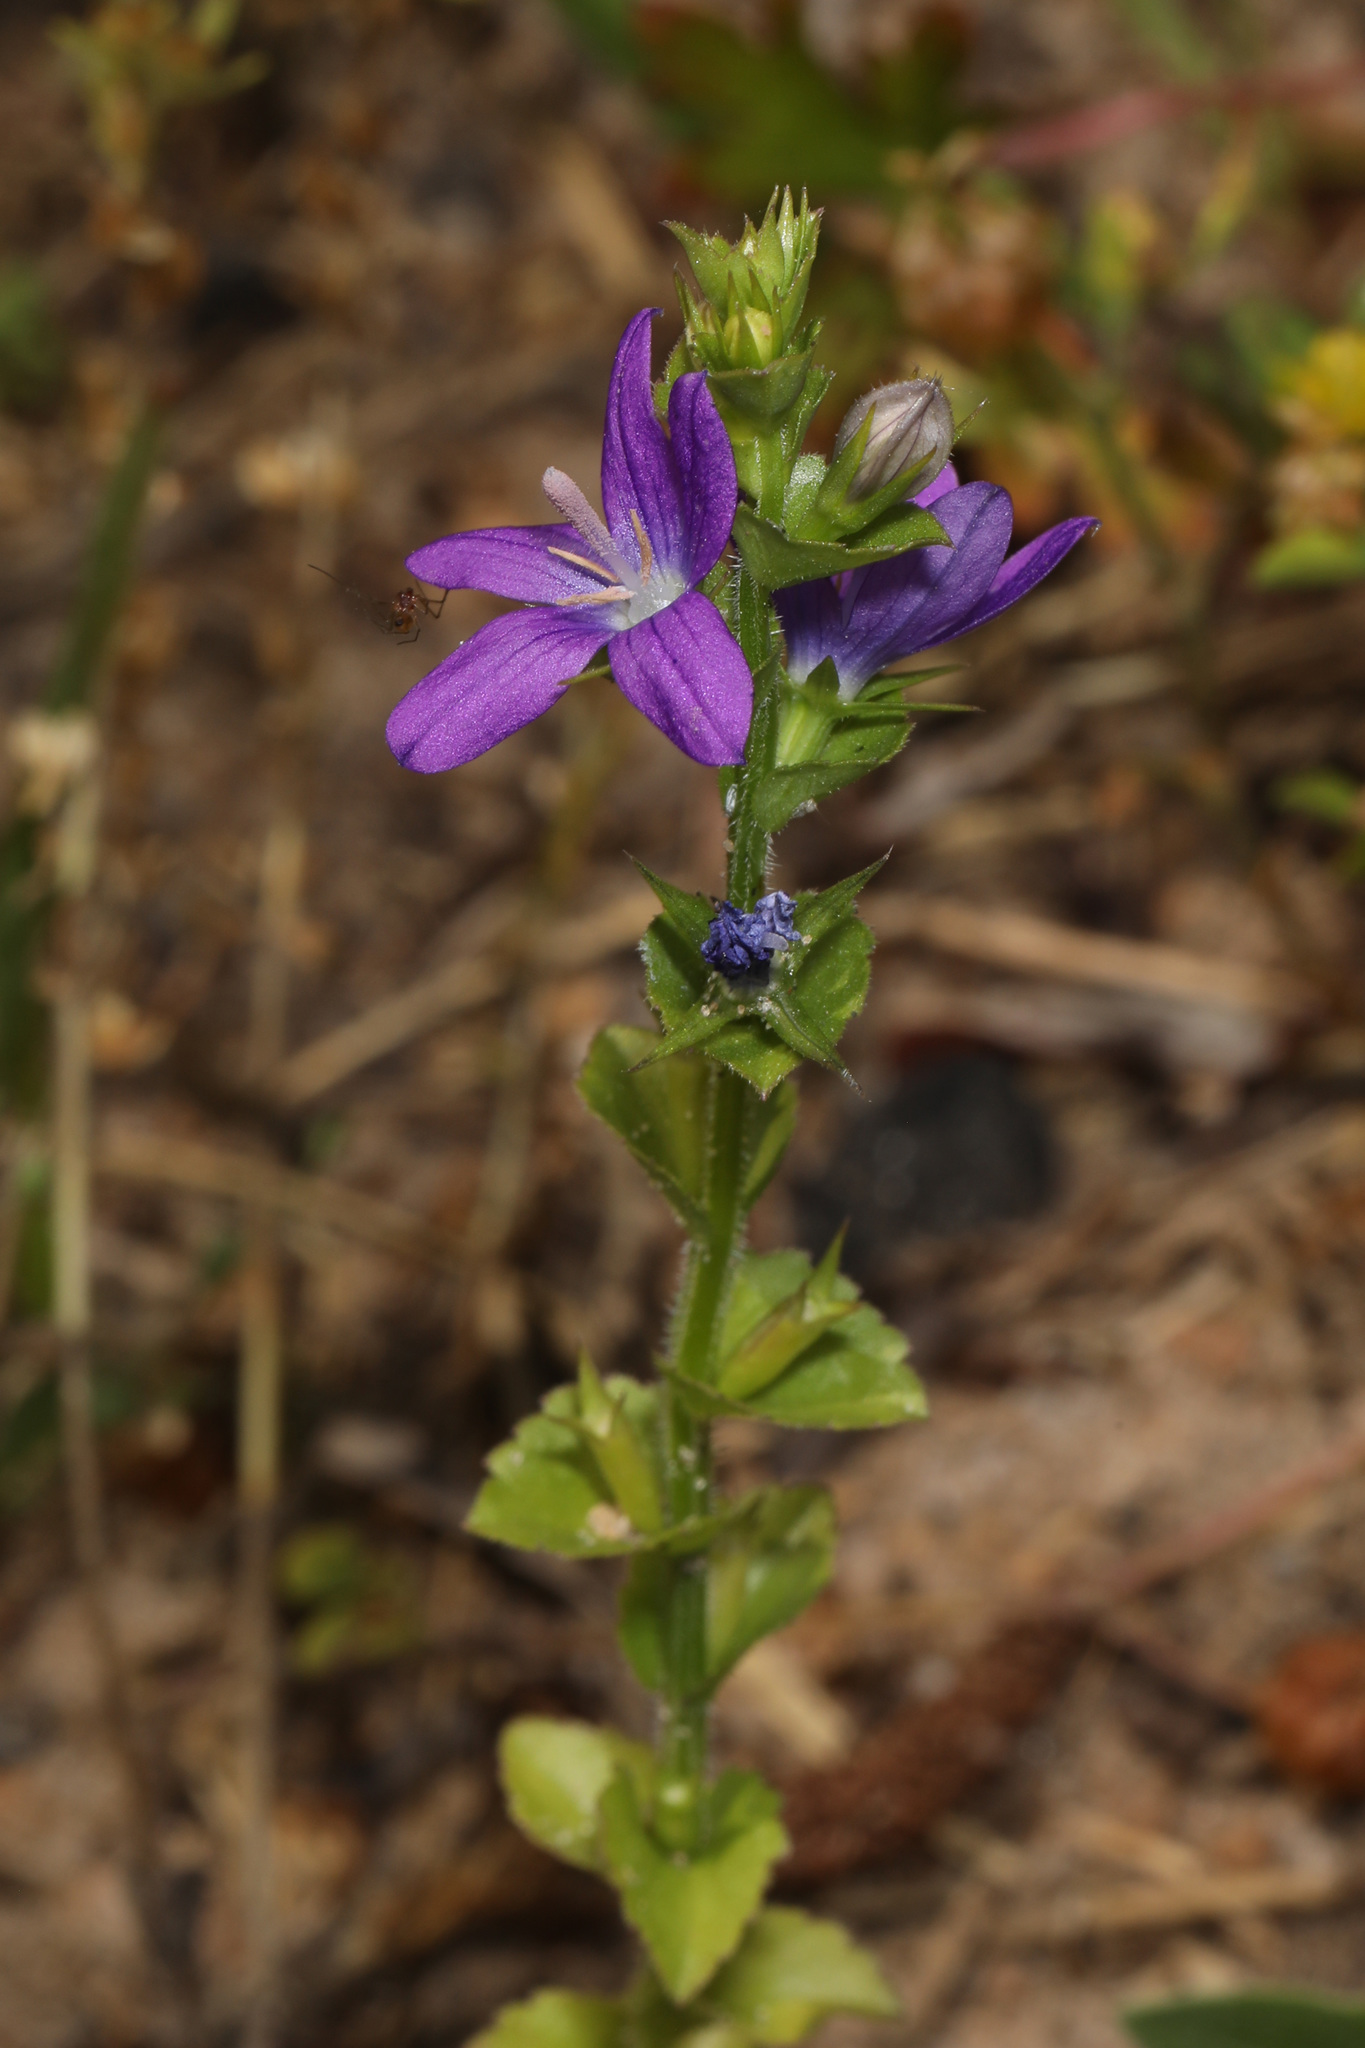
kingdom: Plantae
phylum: Tracheophyta
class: Magnoliopsida
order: Asterales
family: Campanulaceae
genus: Triodanis
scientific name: Triodanis perfoliata
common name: Clasping venus' looking-glass
